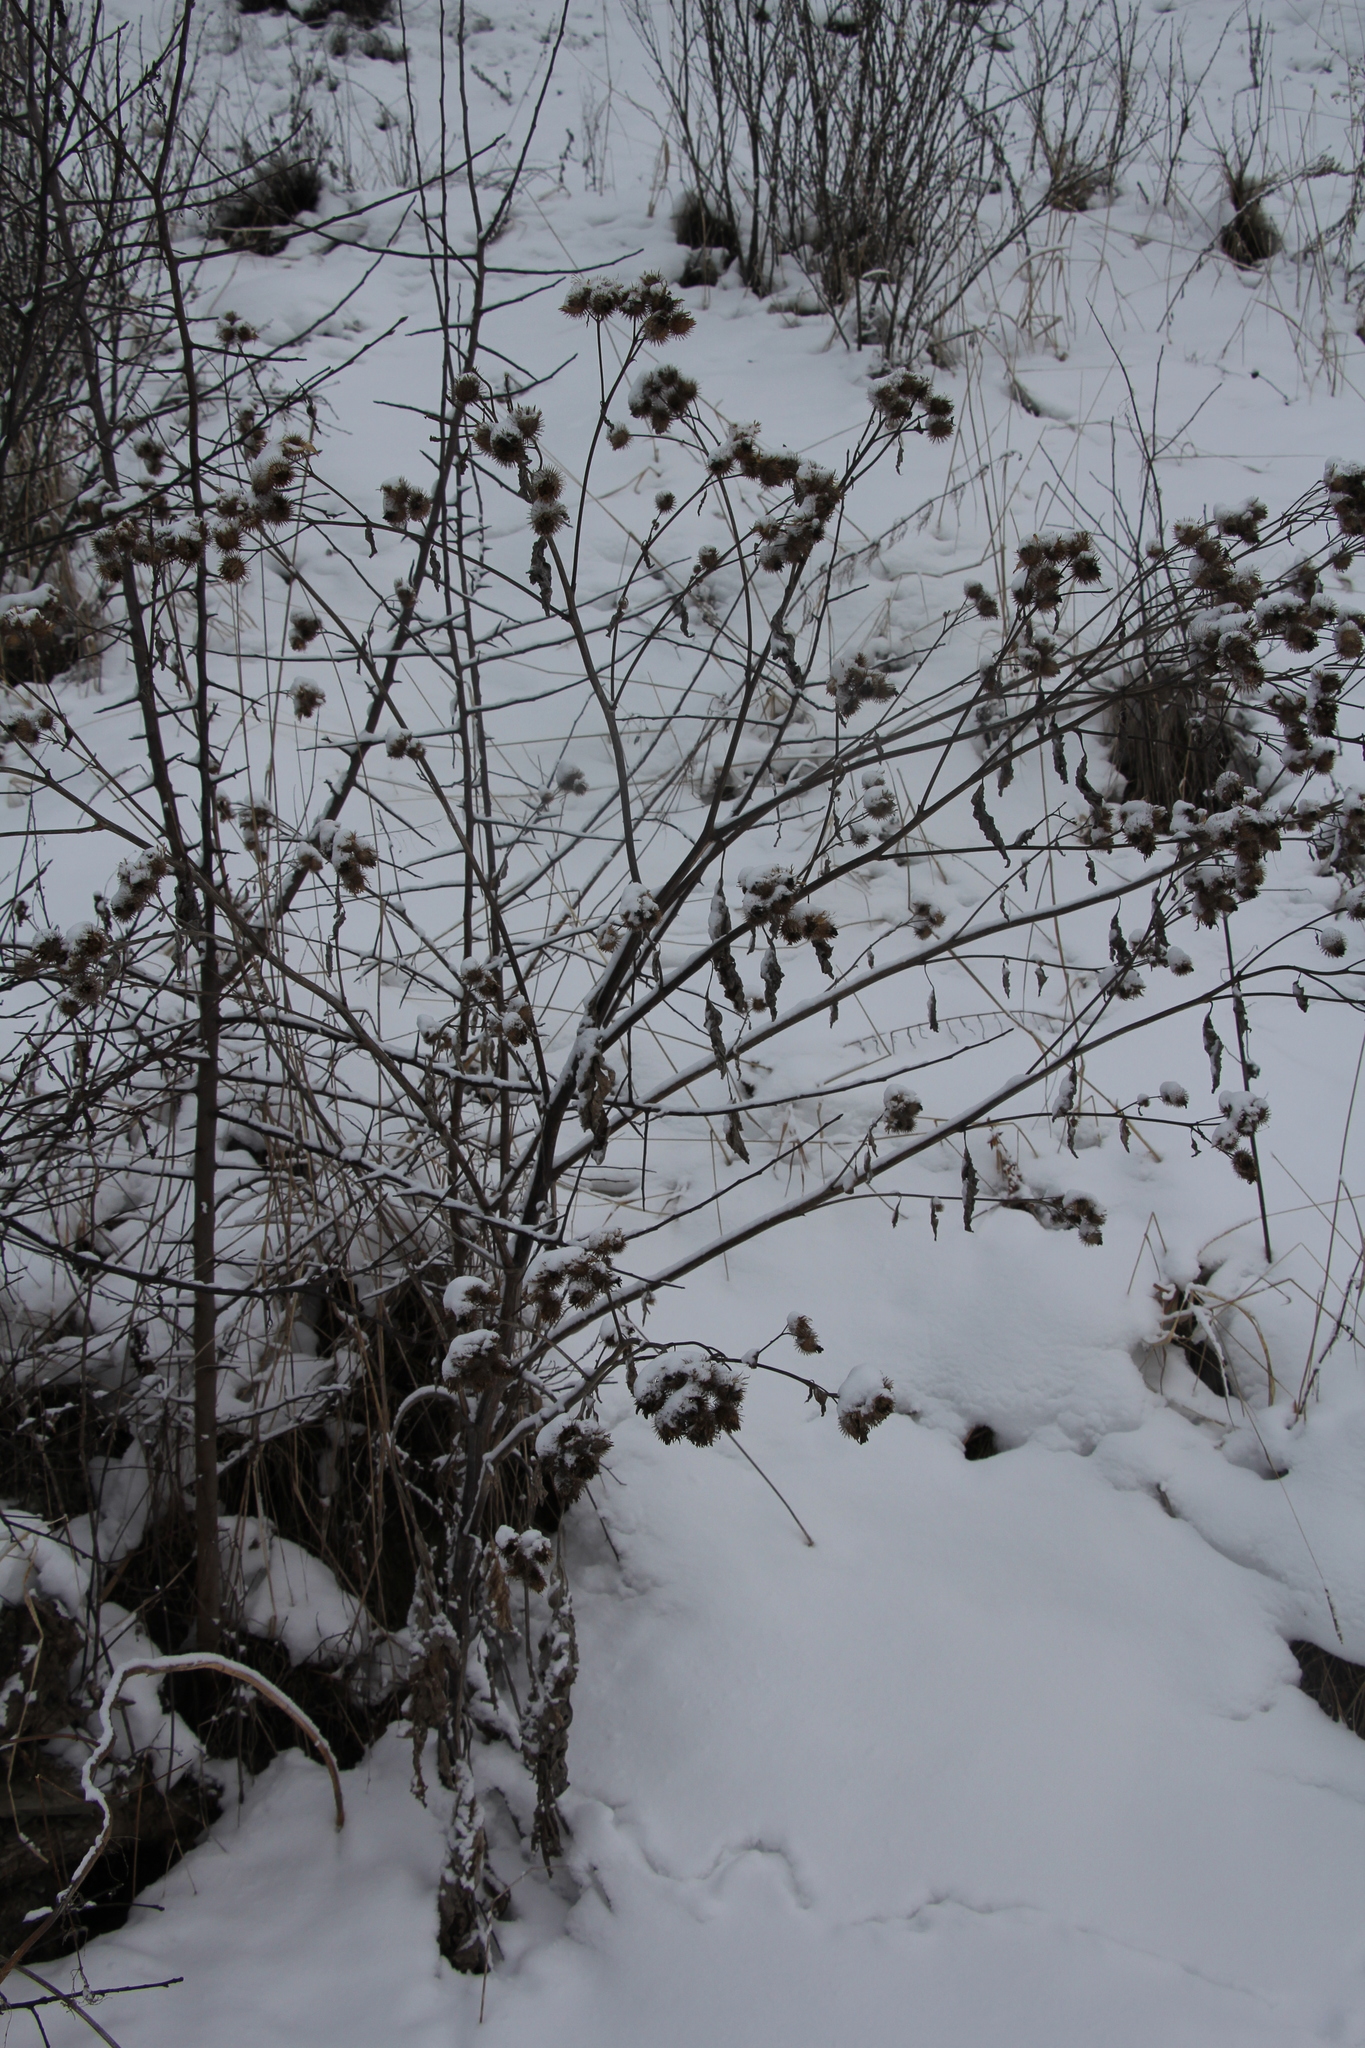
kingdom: Plantae
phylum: Tracheophyta
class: Magnoliopsida
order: Asterales
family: Asteraceae
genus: Arctium
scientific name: Arctium tomentosum
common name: Woolly burdock
